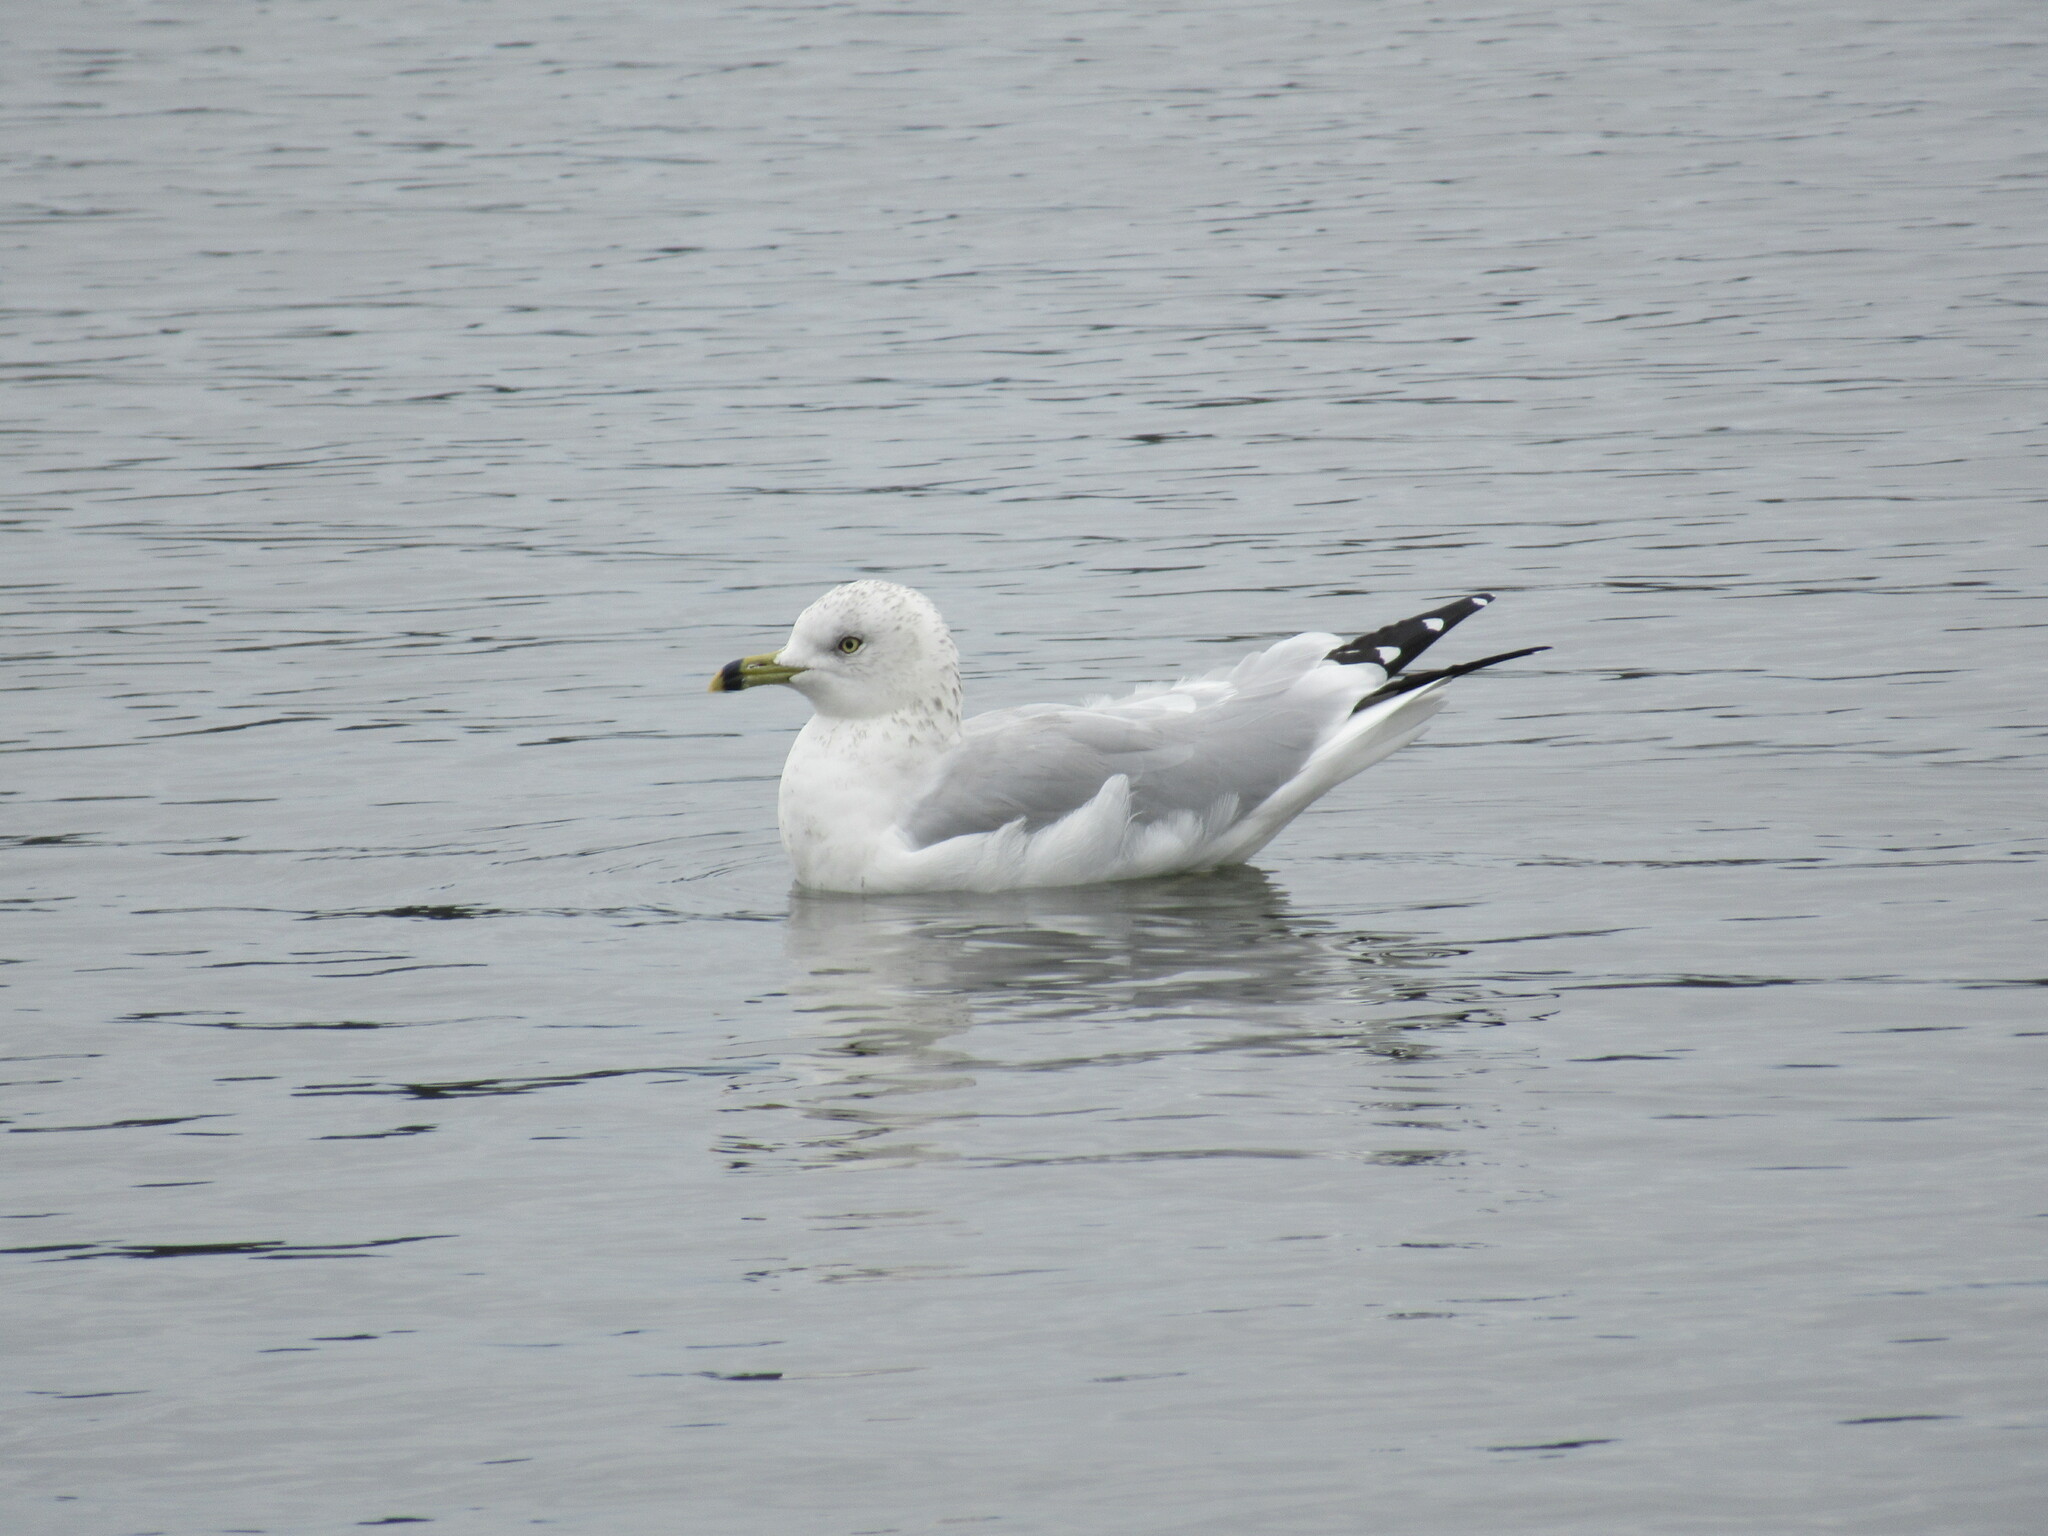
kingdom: Animalia
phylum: Chordata
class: Aves
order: Charadriiformes
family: Laridae
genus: Larus
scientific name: Larus delawarensis
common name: Ring-billed gull
